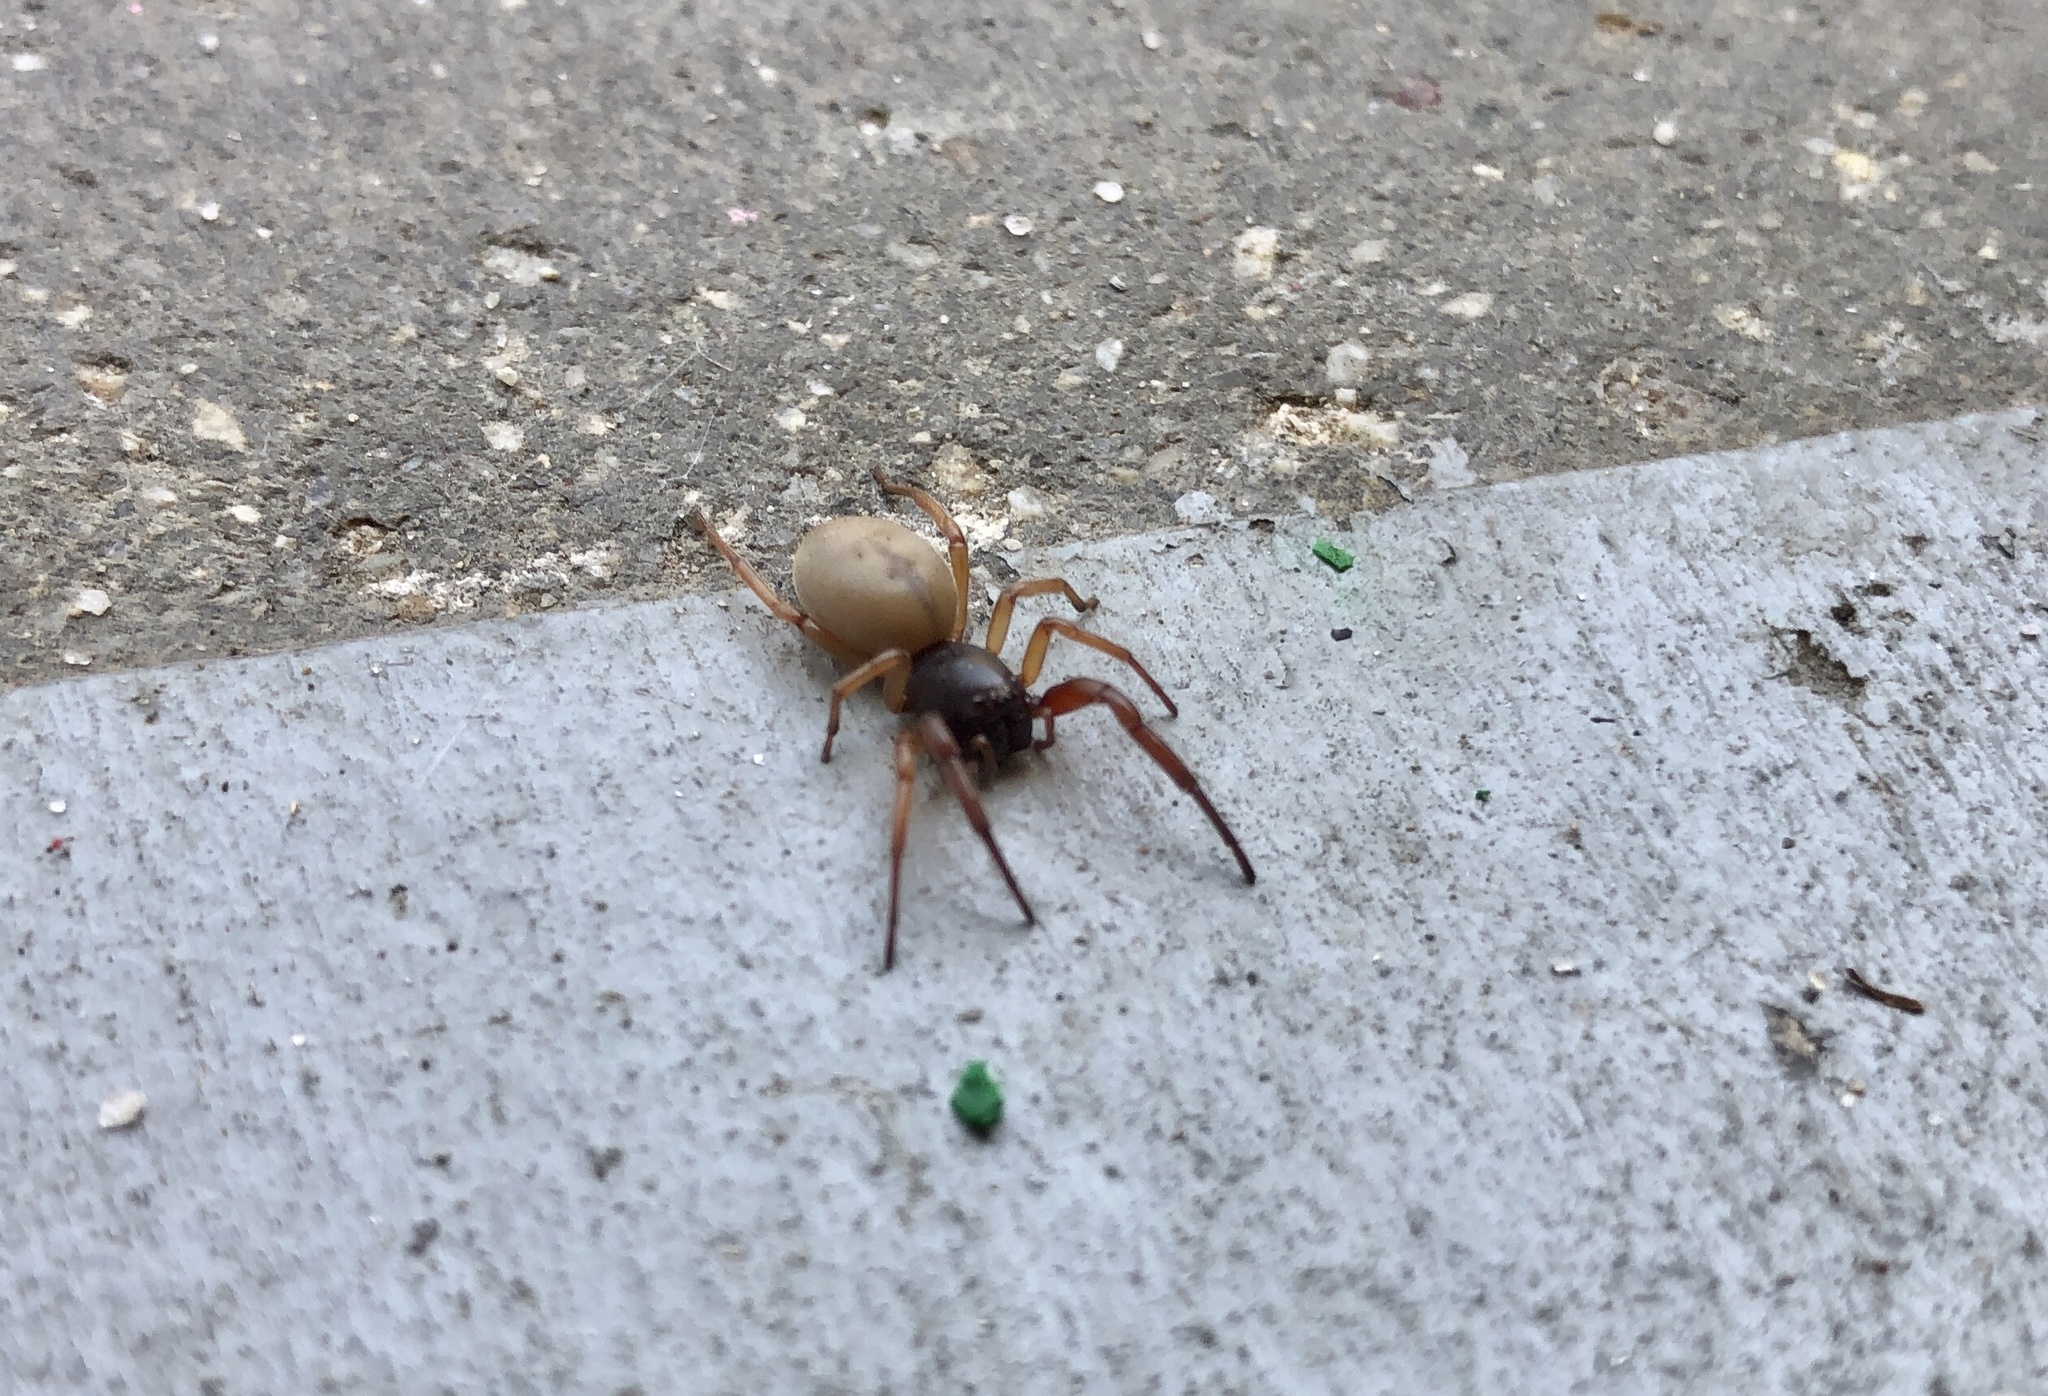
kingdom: Animalia
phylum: Arthropoda
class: Arachnida
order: Araneae
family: Trachelidae
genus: Trachelas
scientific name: Trachelas pacificus
